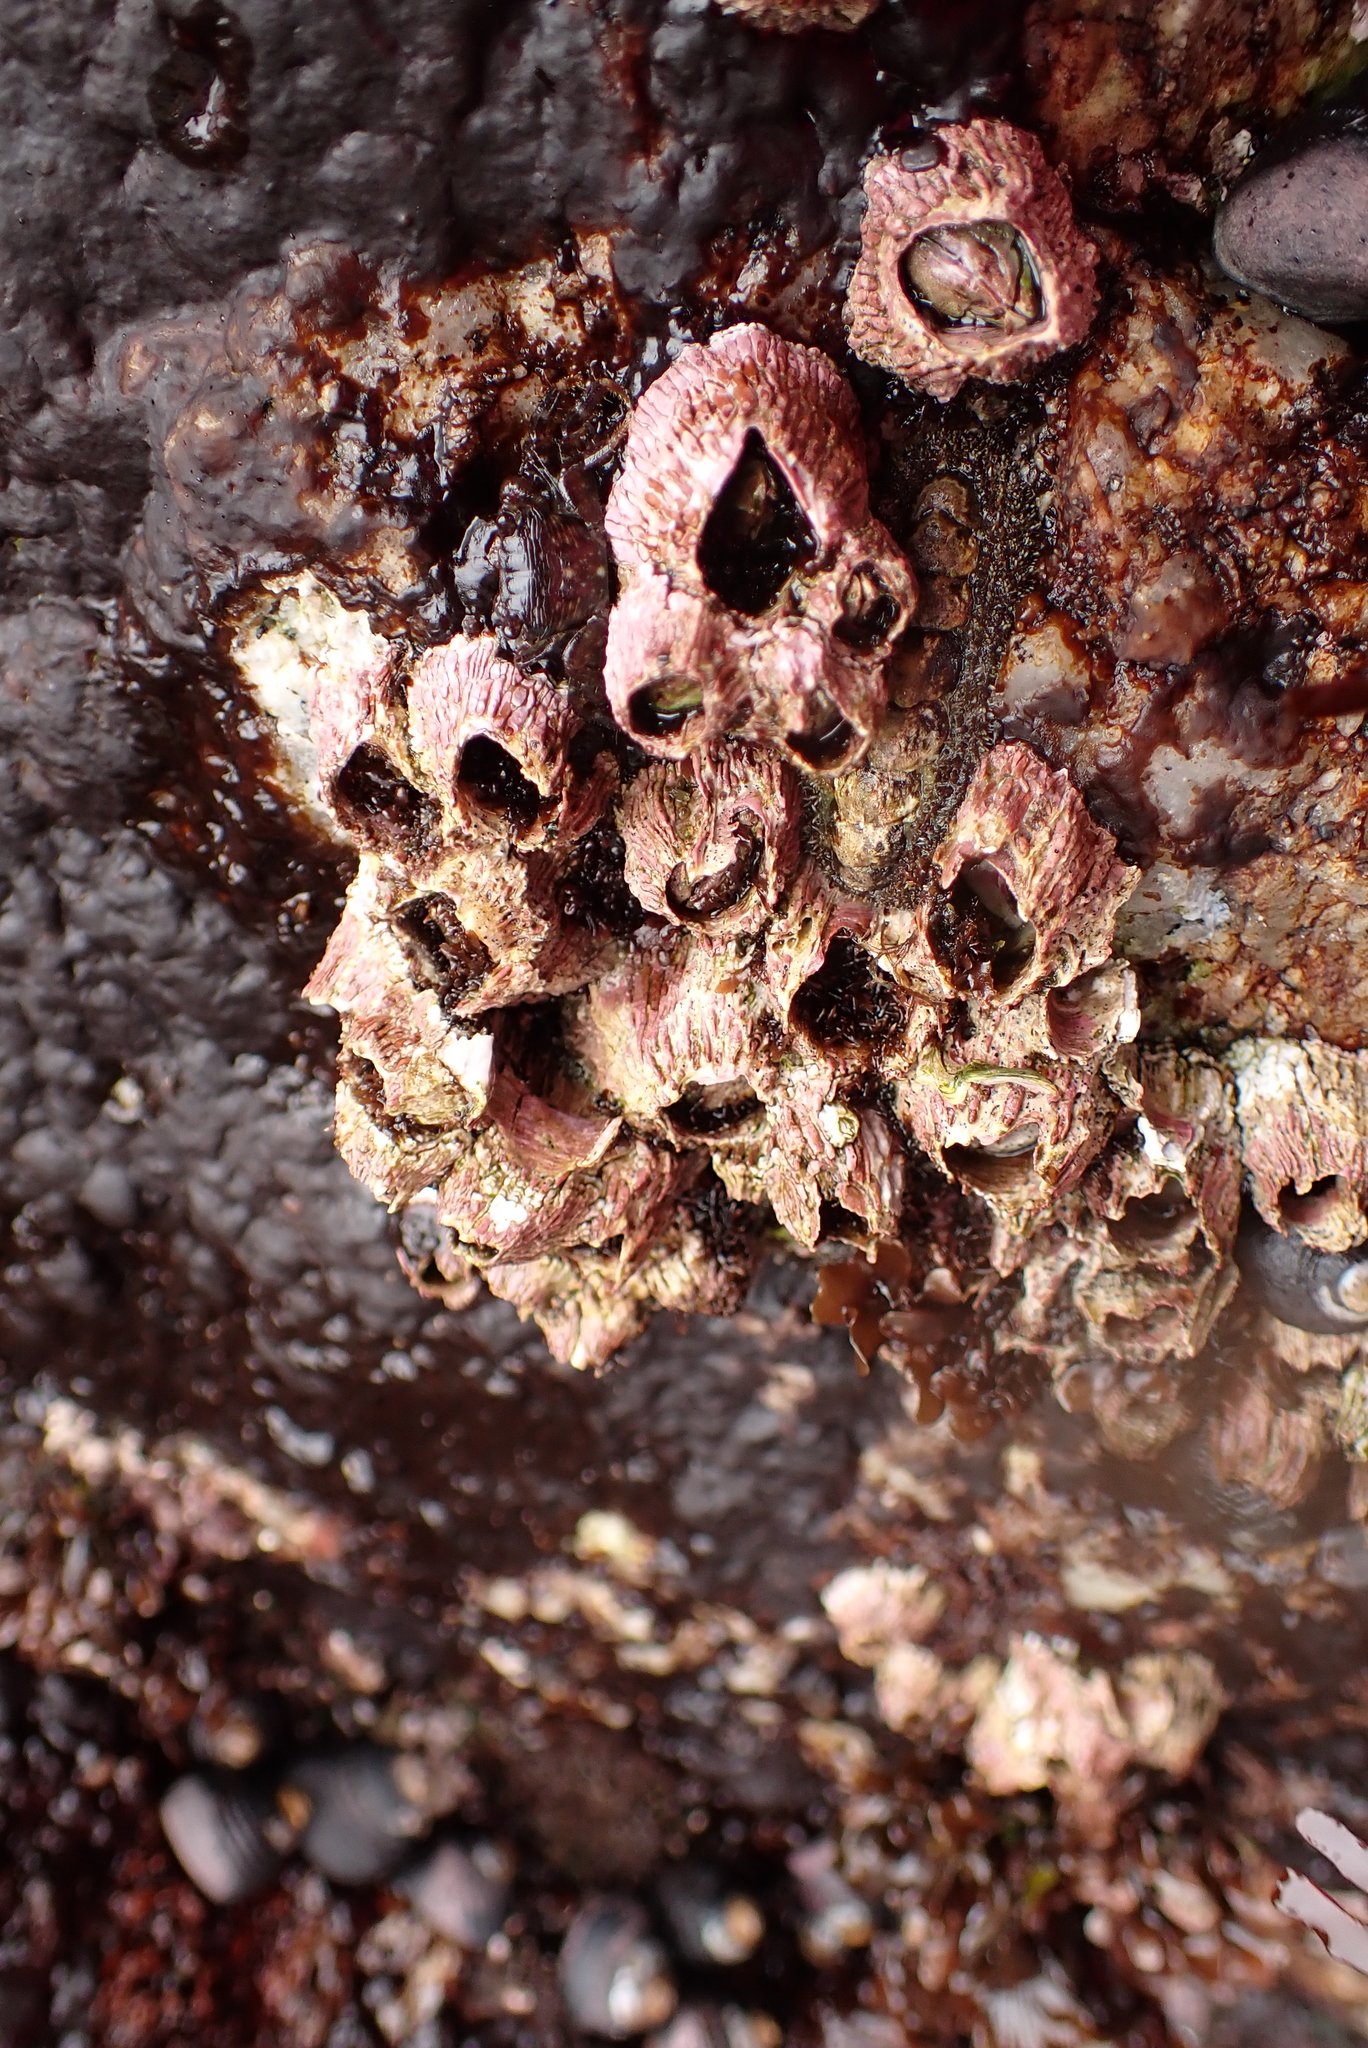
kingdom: Animalia
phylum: Arthropoda
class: Maxillopoda
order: Sessilia
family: Tetraclitidae
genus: Tetraclita
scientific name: Tetraclita rubescens
